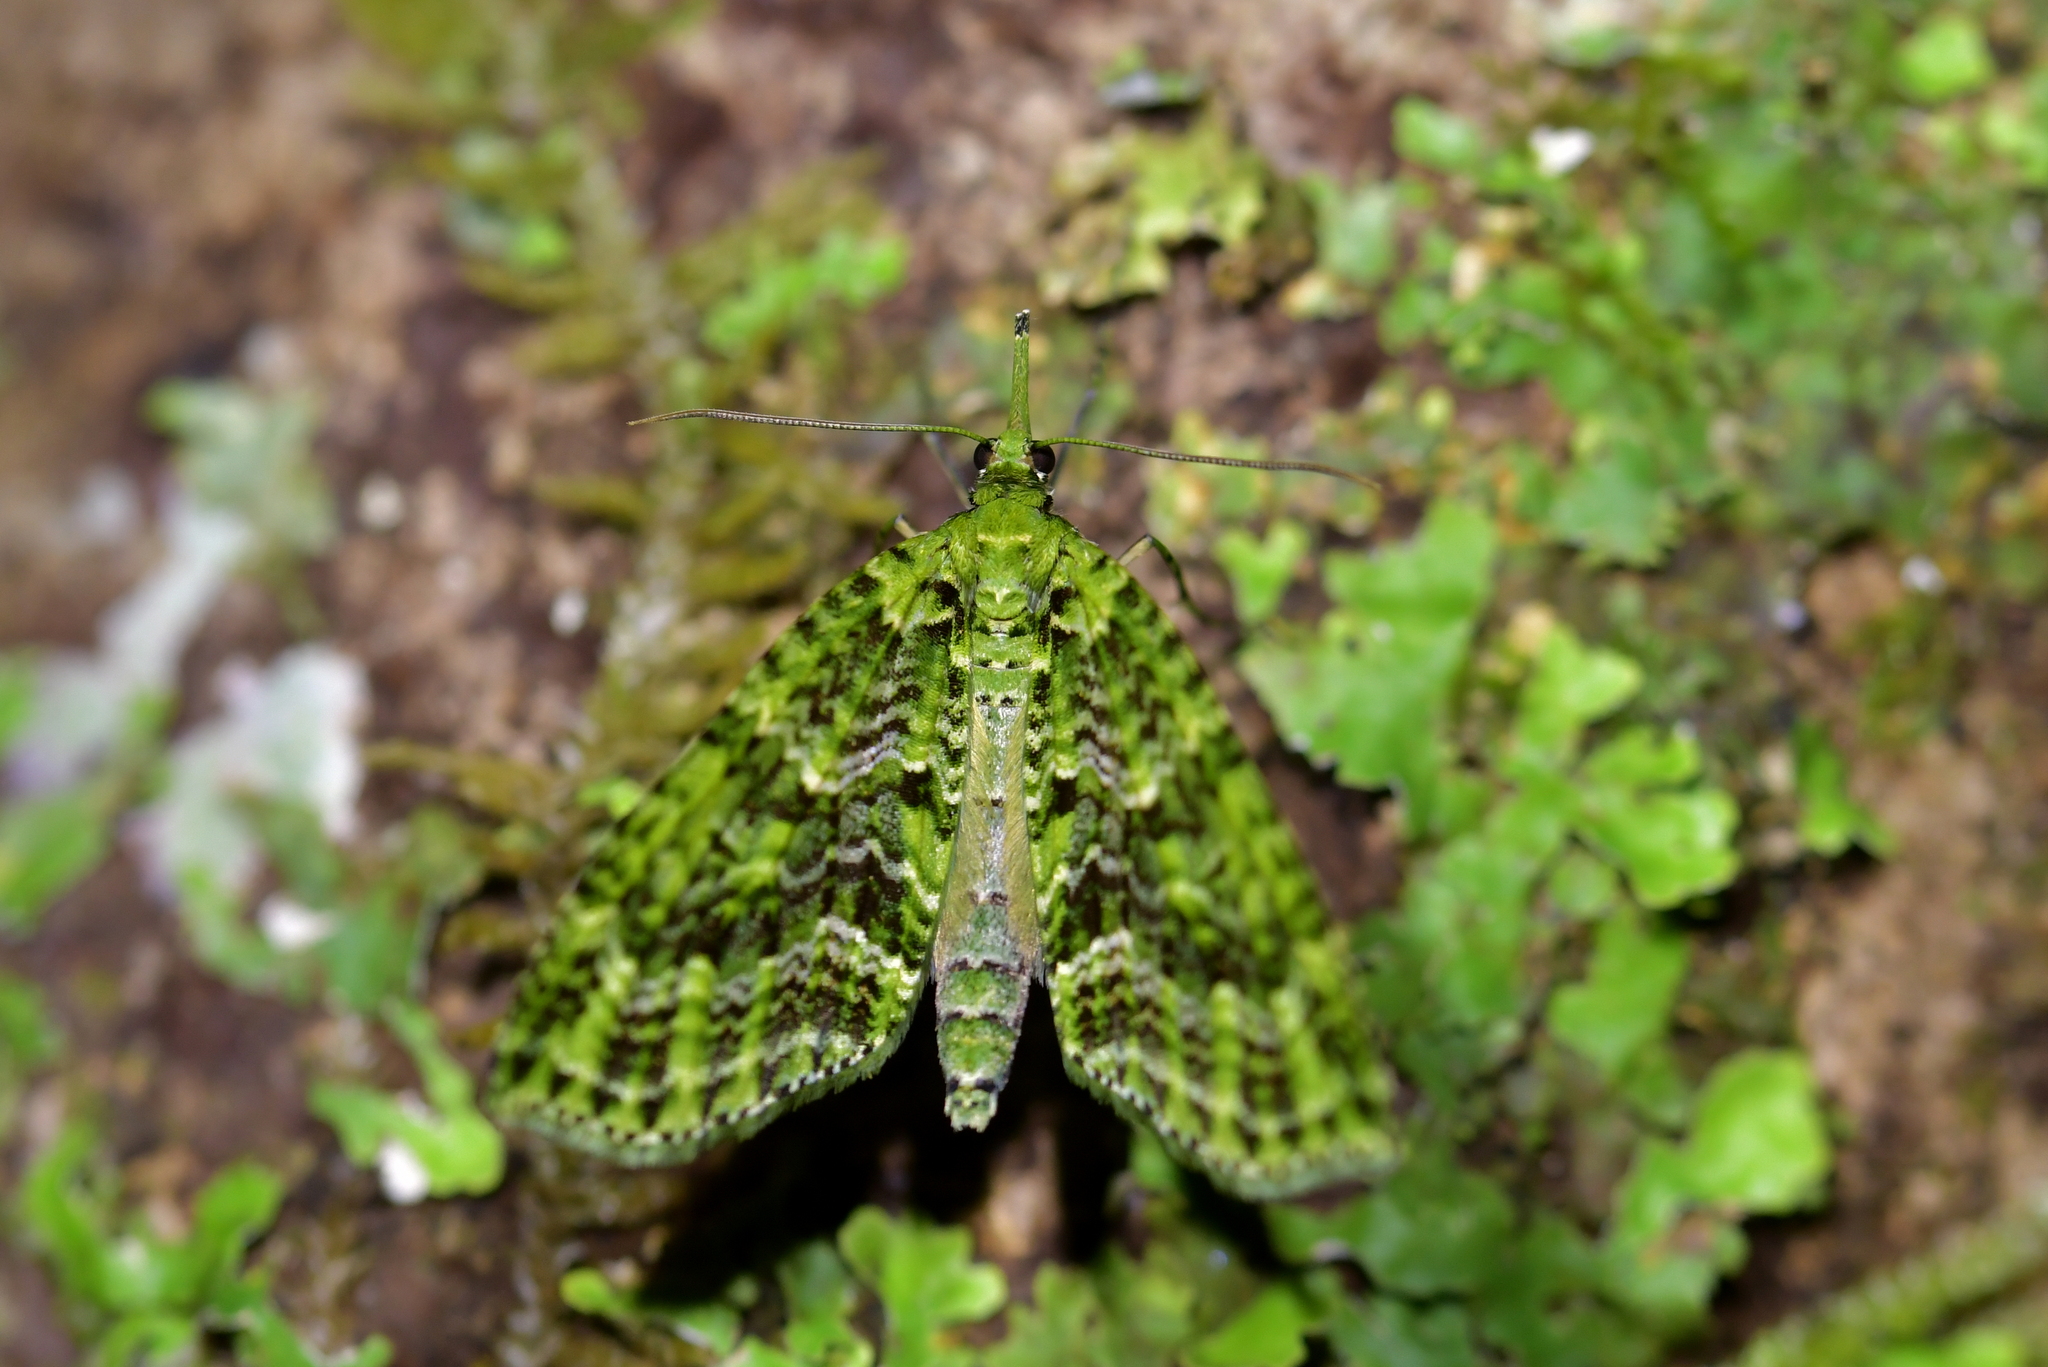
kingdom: Animalia
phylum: Arthropoda
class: Insecta
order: Lepidoptera
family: Geometridae
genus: Tatosoma
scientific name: Tatosoma tipulata
